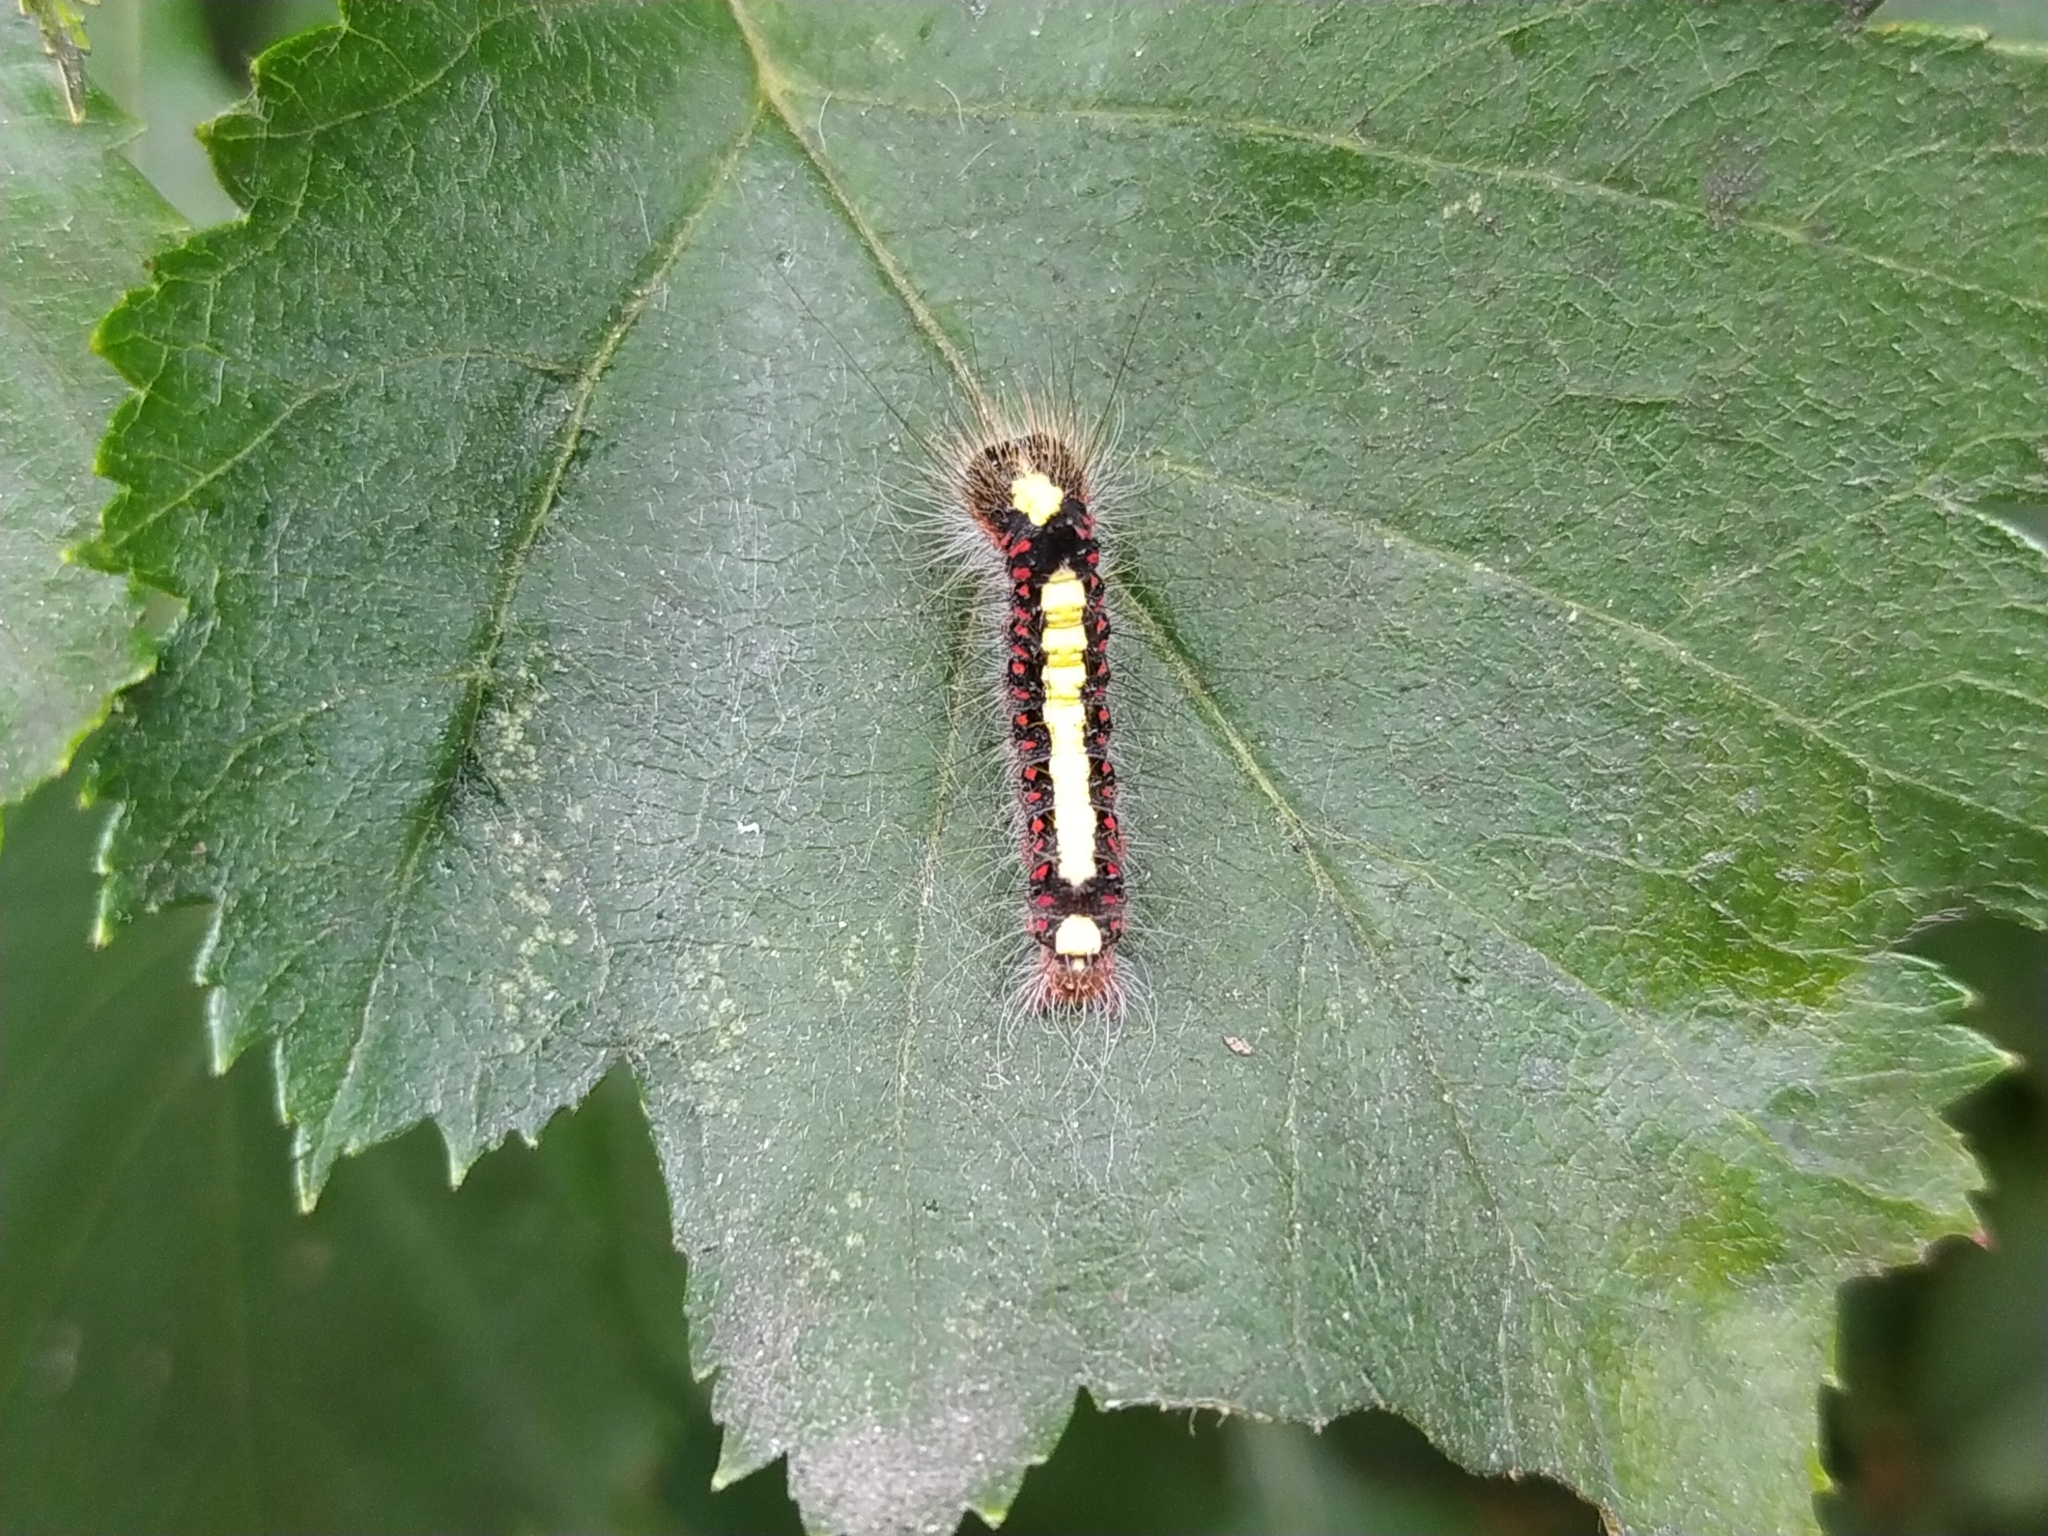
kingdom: Animalia
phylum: Arthropoda
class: Insecta
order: Lepidoptera
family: Noctuidae
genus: Acronicta
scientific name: Acronicta psi
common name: Grey dagger
